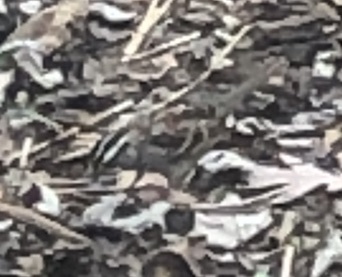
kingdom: Animalia
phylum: Chordata
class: Aves
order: Passeriformes
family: Passerellidae
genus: Zonotrichia
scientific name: Zonotrichia albicollis
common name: White-throated sparrow
